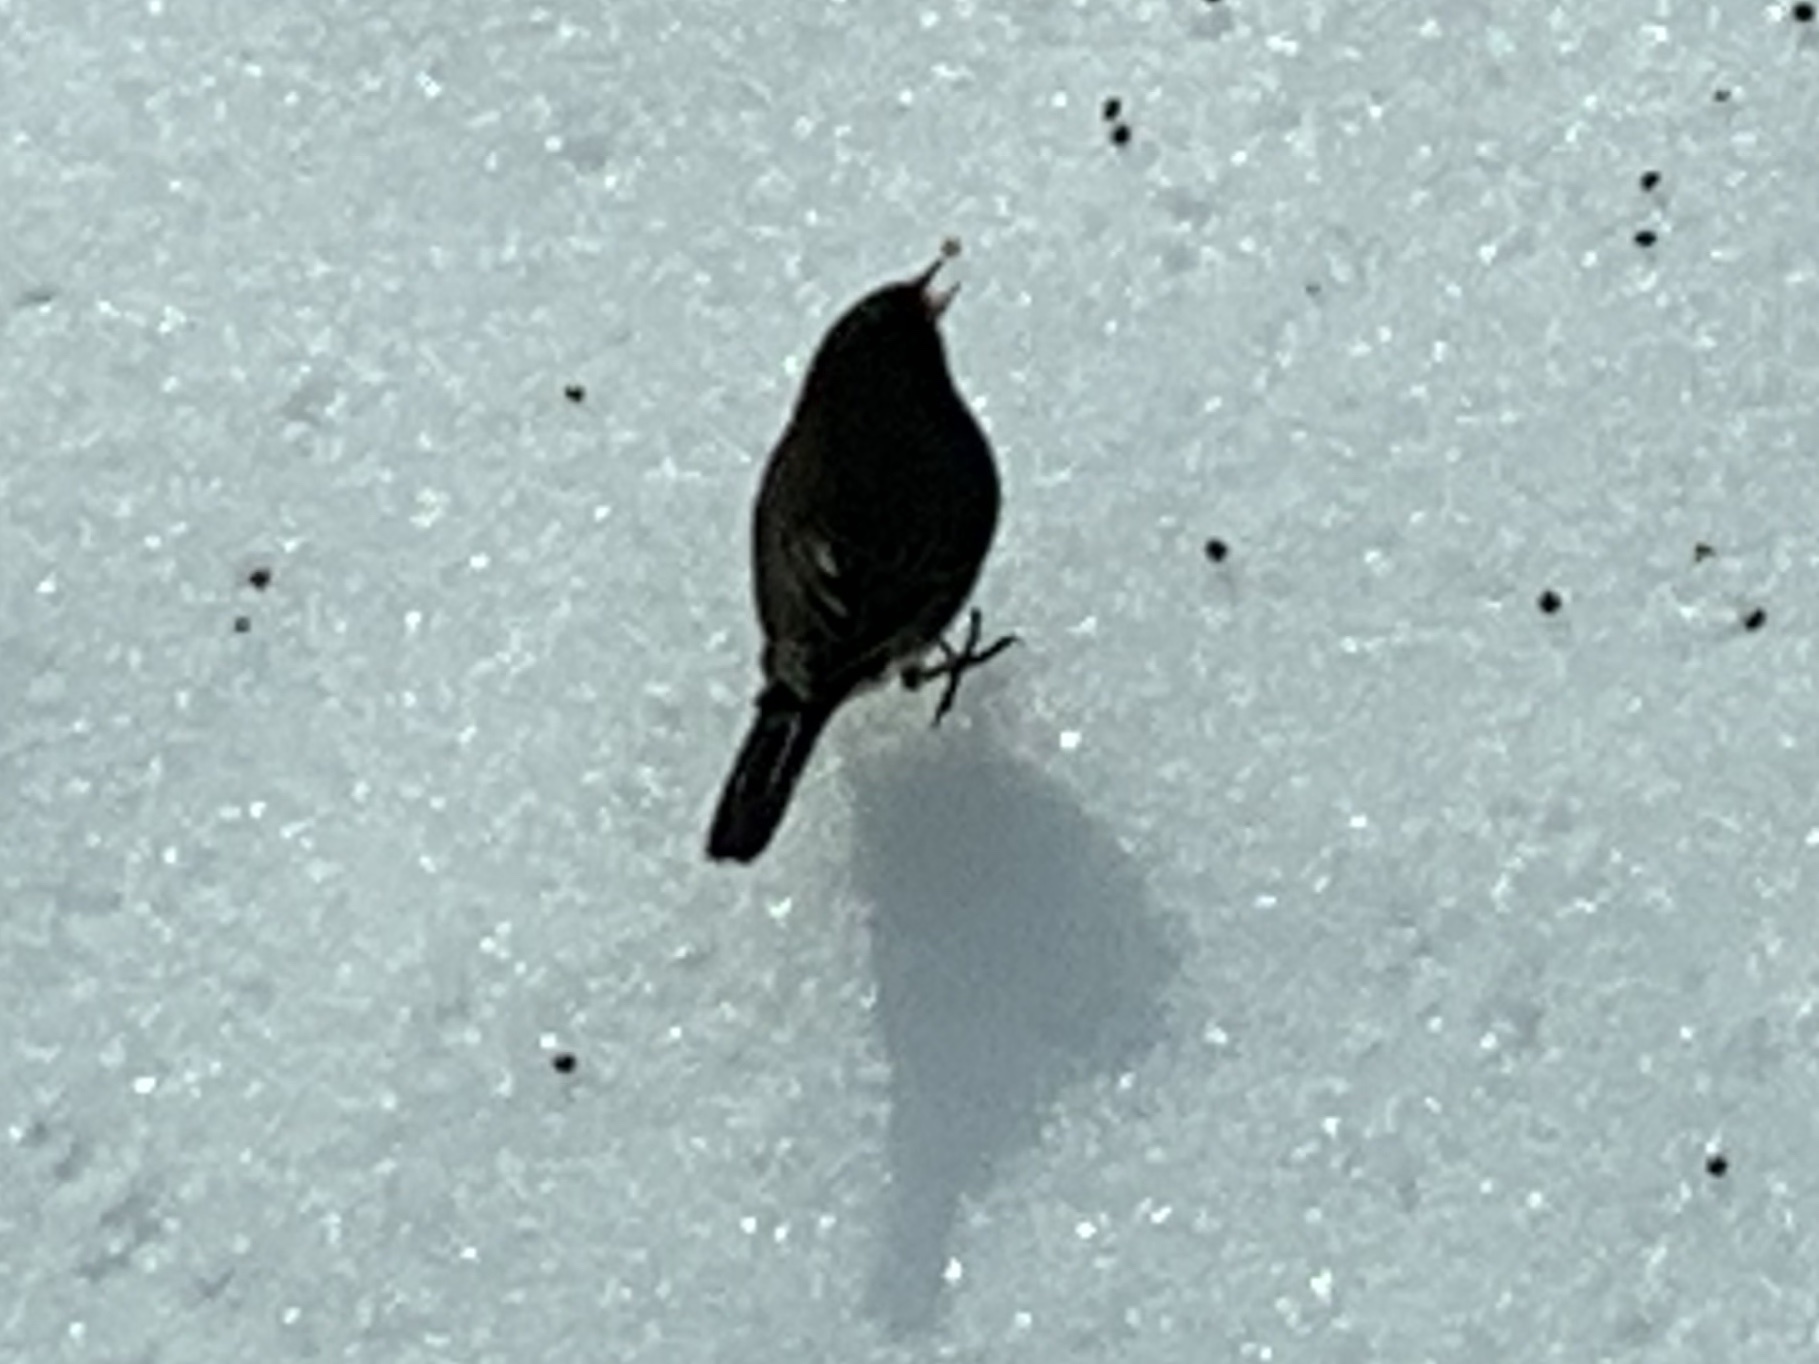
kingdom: Animalia
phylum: Chordata
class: Aves
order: Passeriformes
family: Passerellidae
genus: Junco
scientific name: Junco hyemalis
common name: Dark-eyed junco
